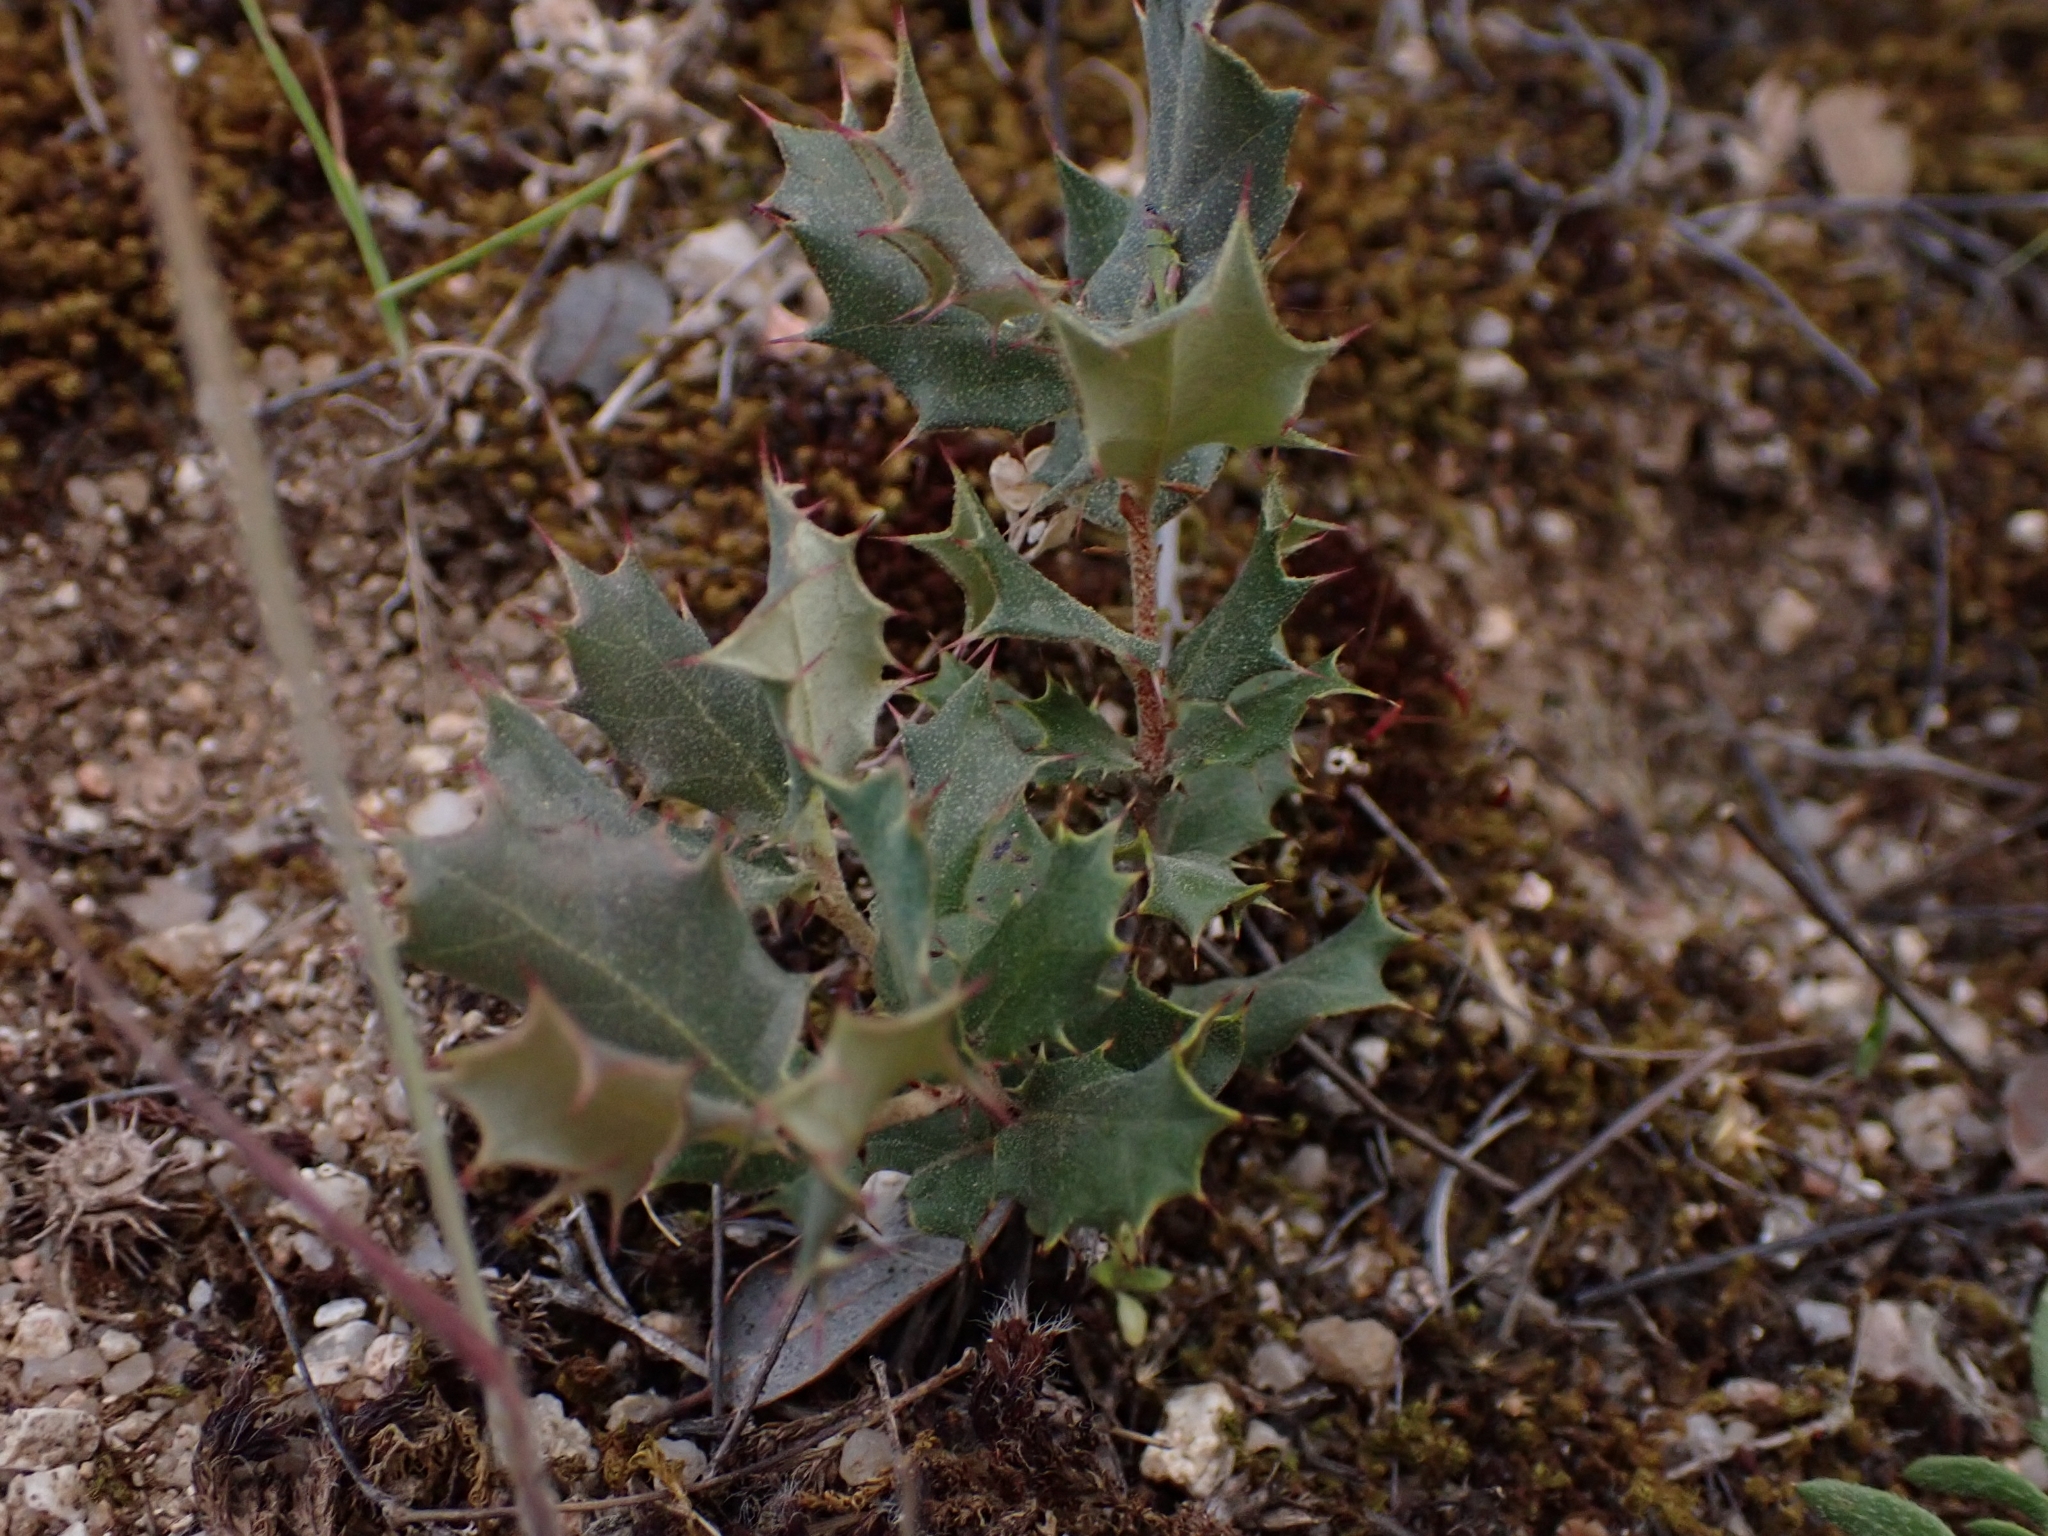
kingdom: Plantae
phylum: Tracheophyta
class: Magnoliopsida
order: Fagales
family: Fagaceae
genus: Quercus
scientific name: Quercus rotundifolia
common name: Holm oak
